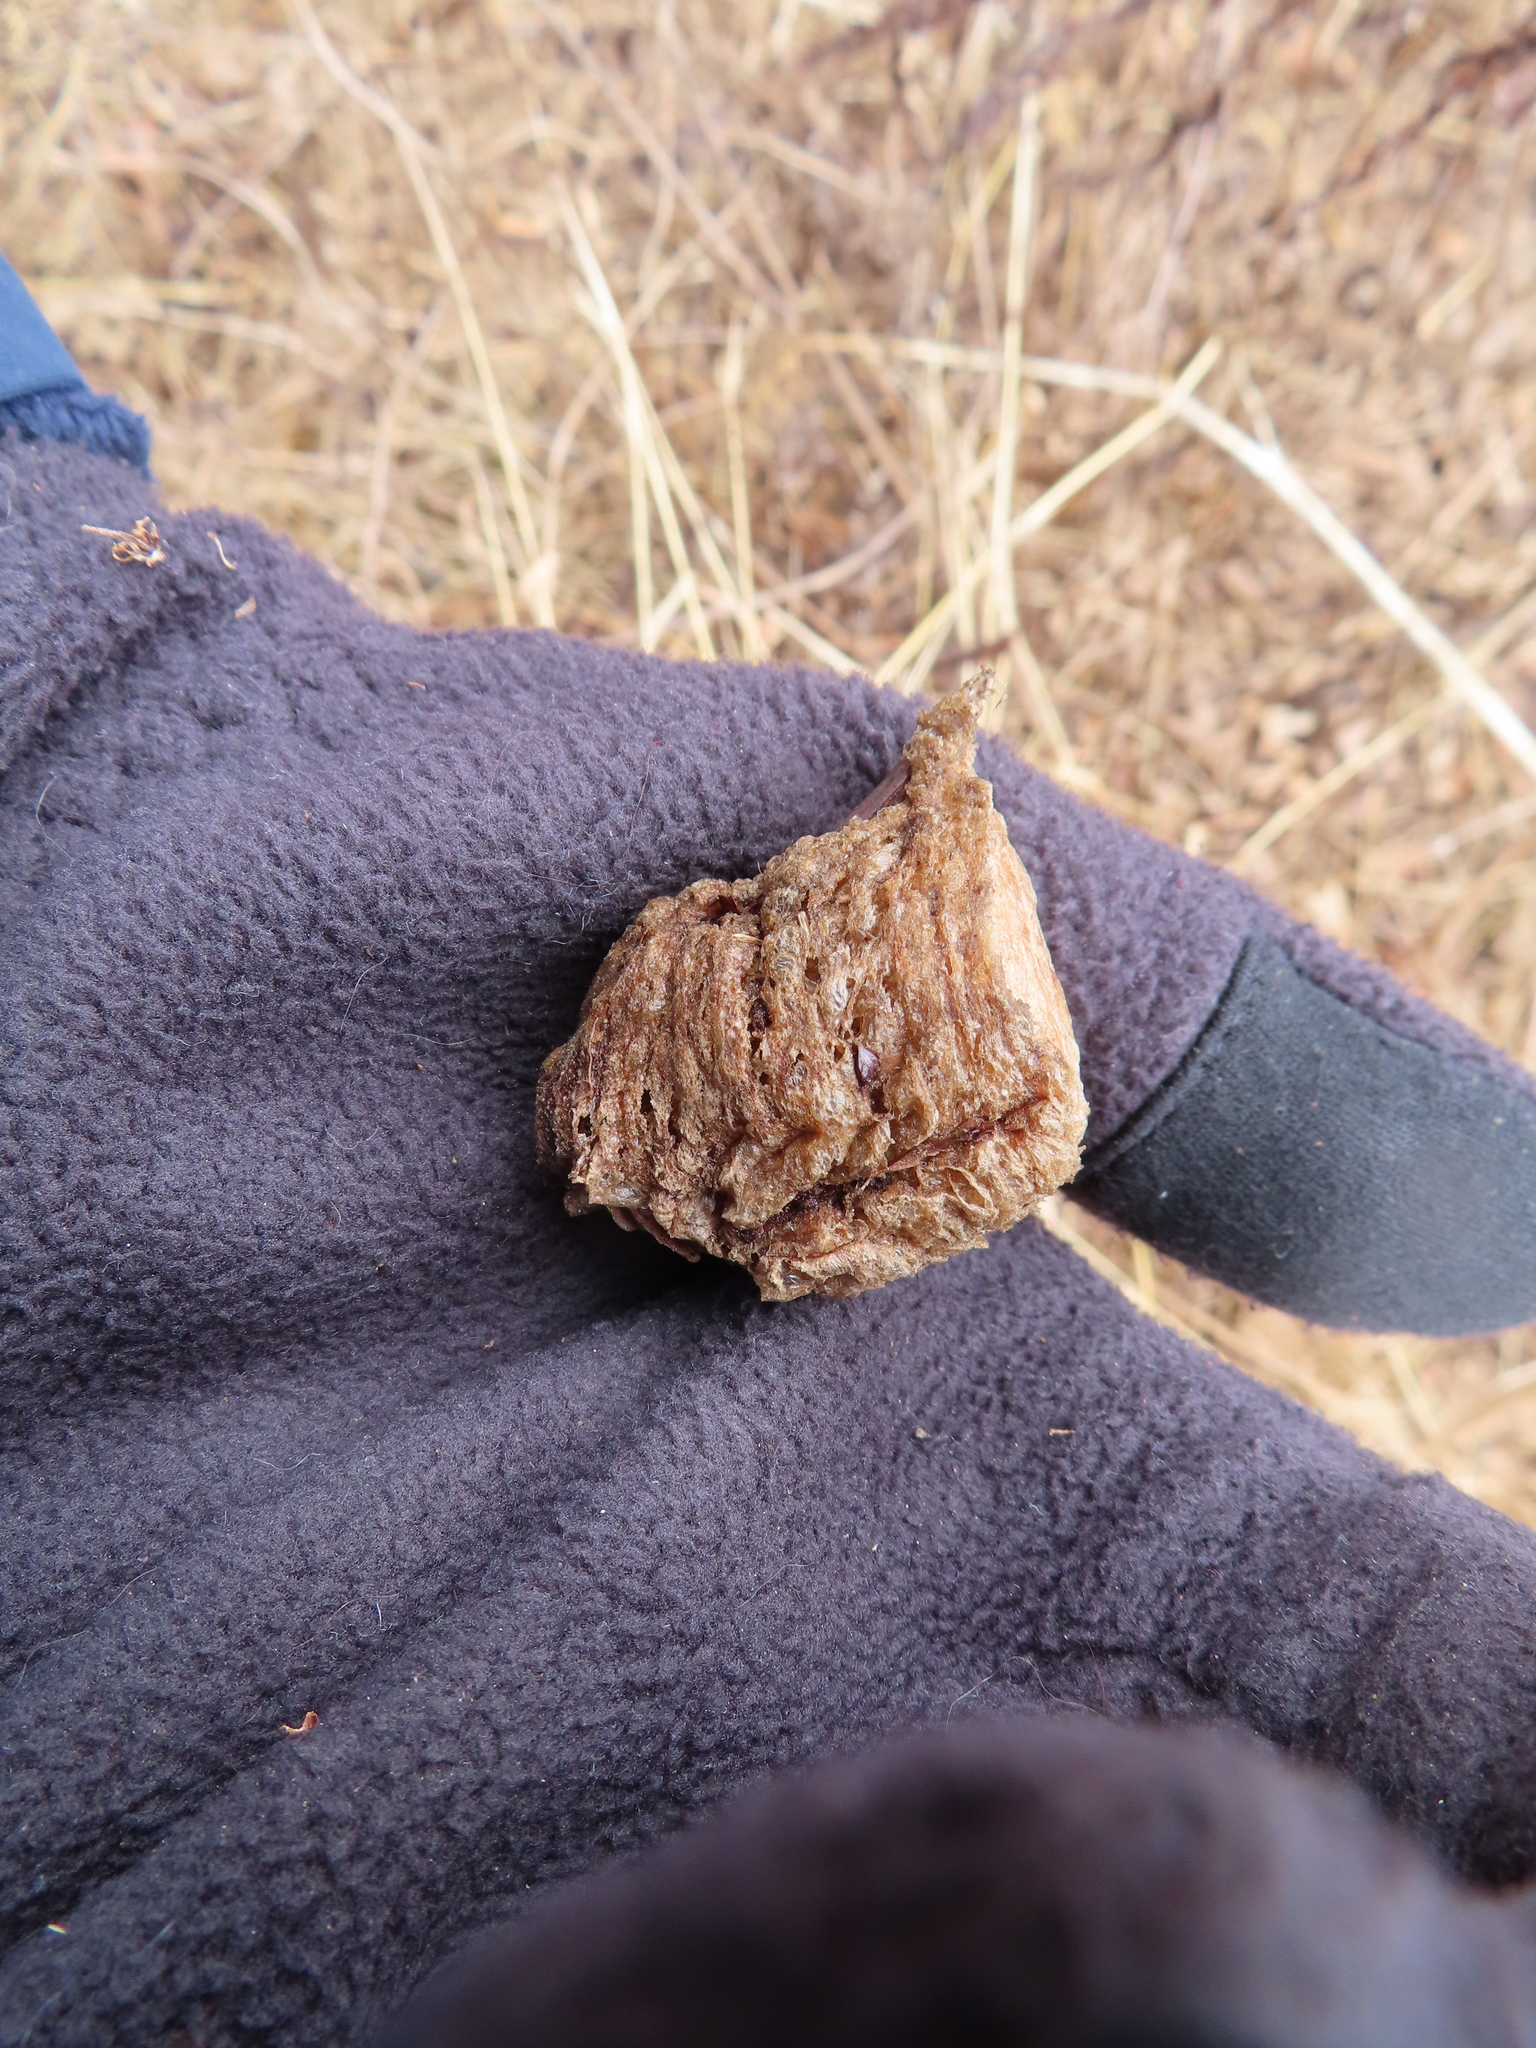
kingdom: Animalia
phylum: Arthropoda
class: Insecta
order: Mantodea
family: Mantidae
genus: Tenodera
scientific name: Tenodera sinensis
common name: Chinese mantis
